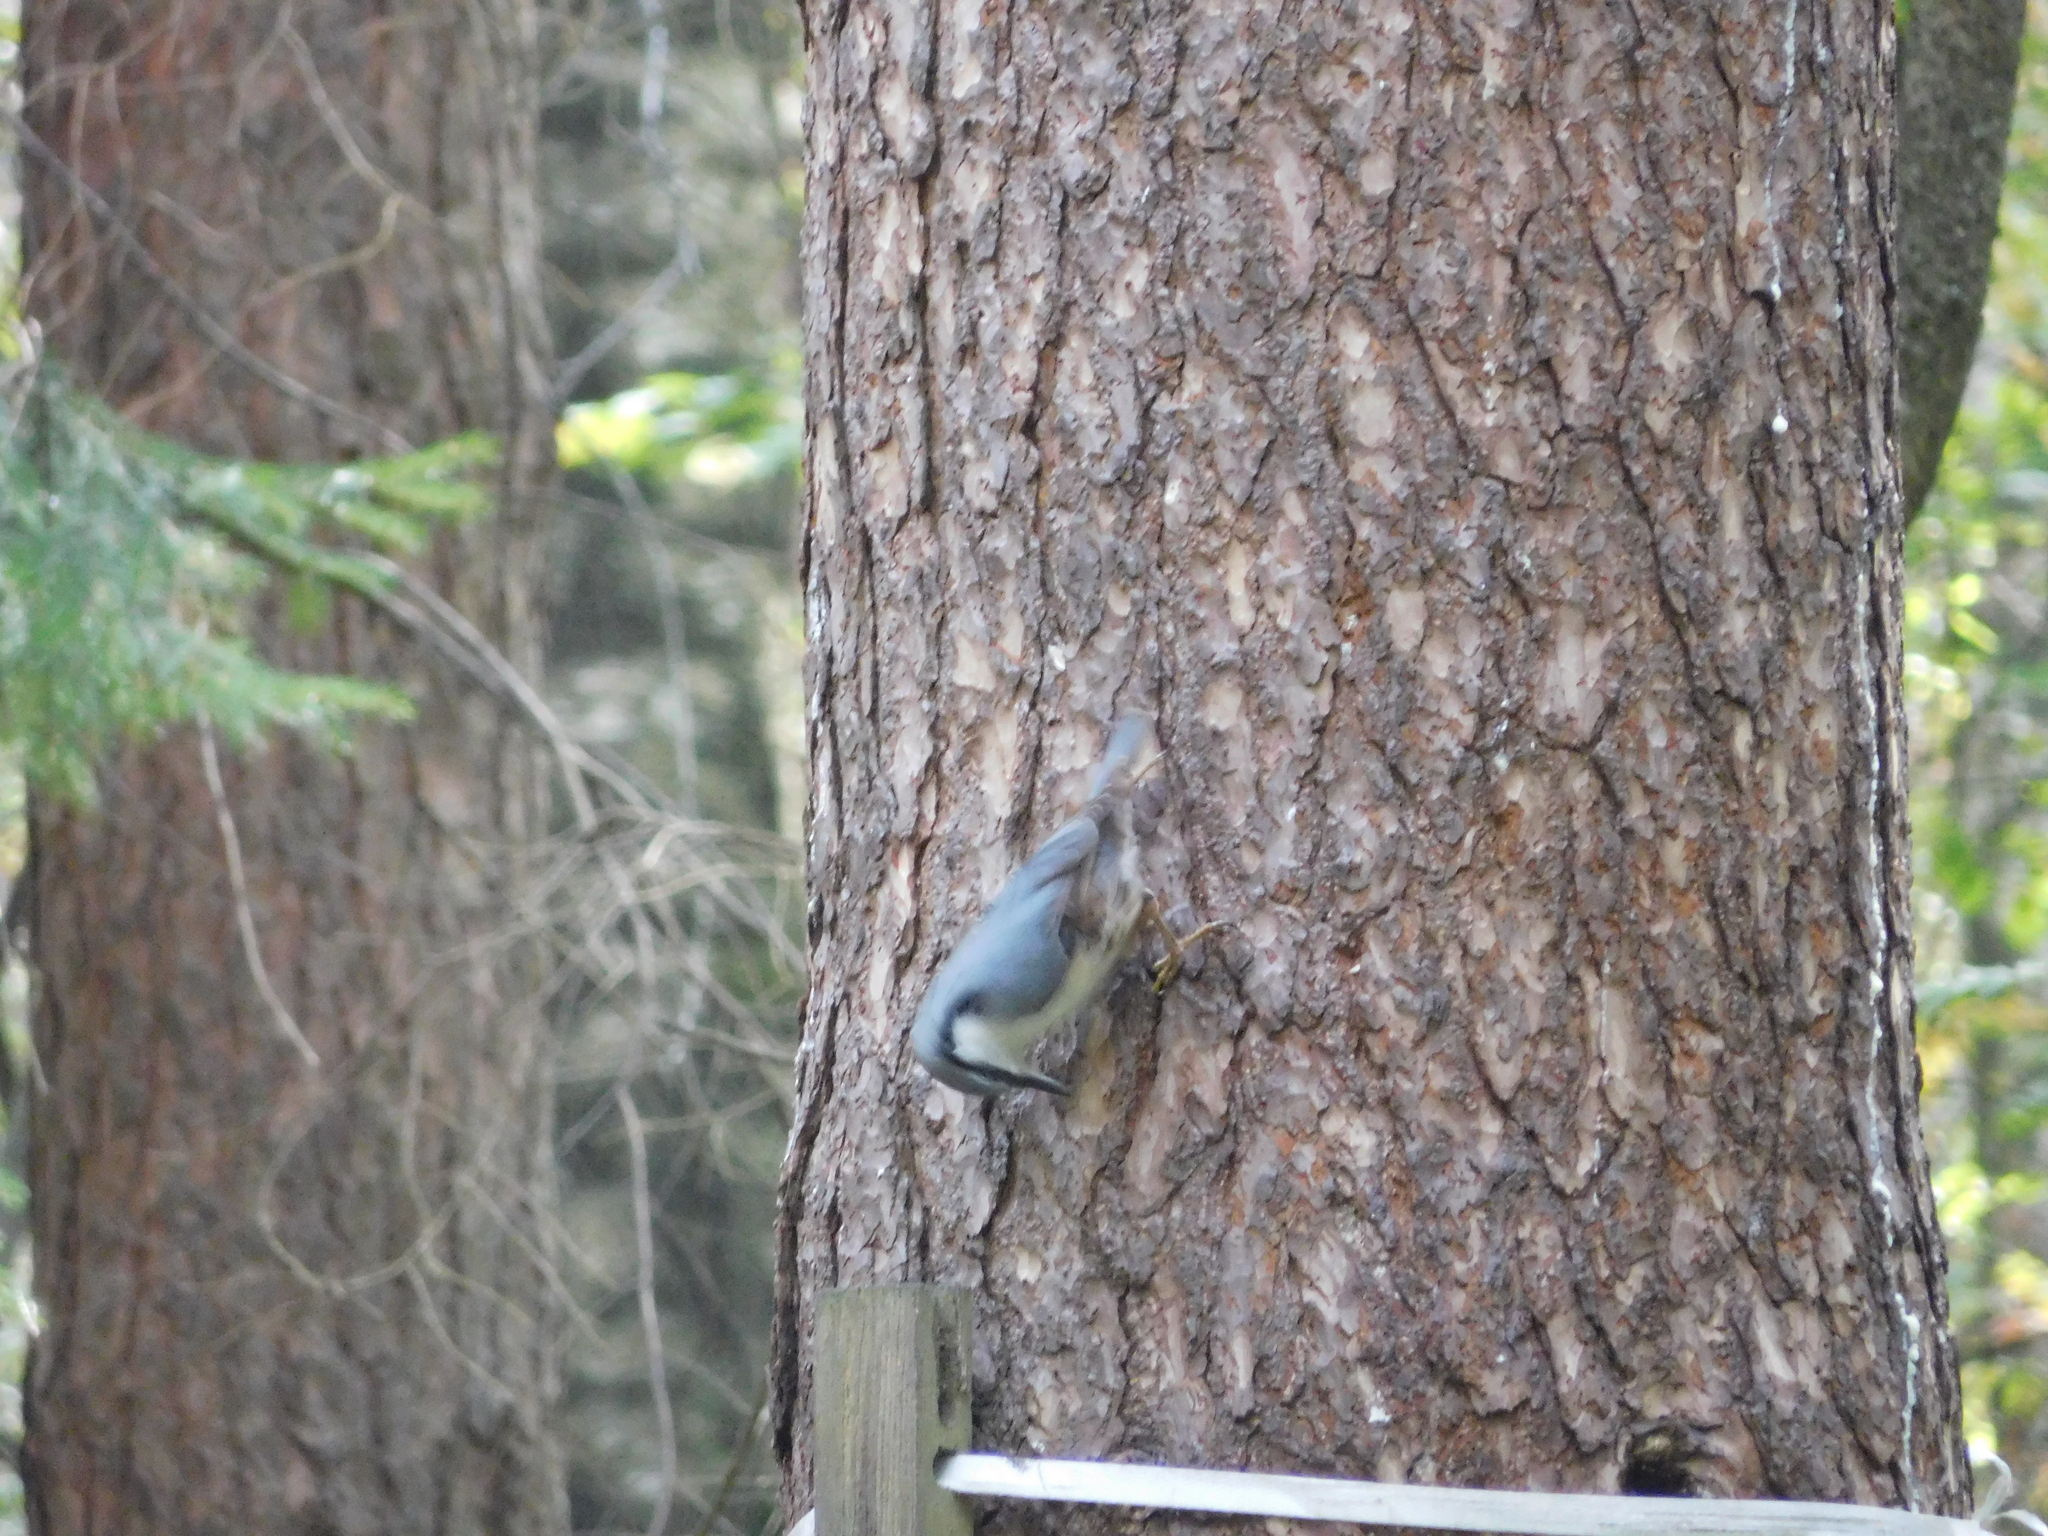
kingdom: Animalia
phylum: Chordata
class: Aves
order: Passeriformes
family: Sittidae
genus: Sitta
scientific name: Sitta europaea
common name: Eurasian nuthatch
